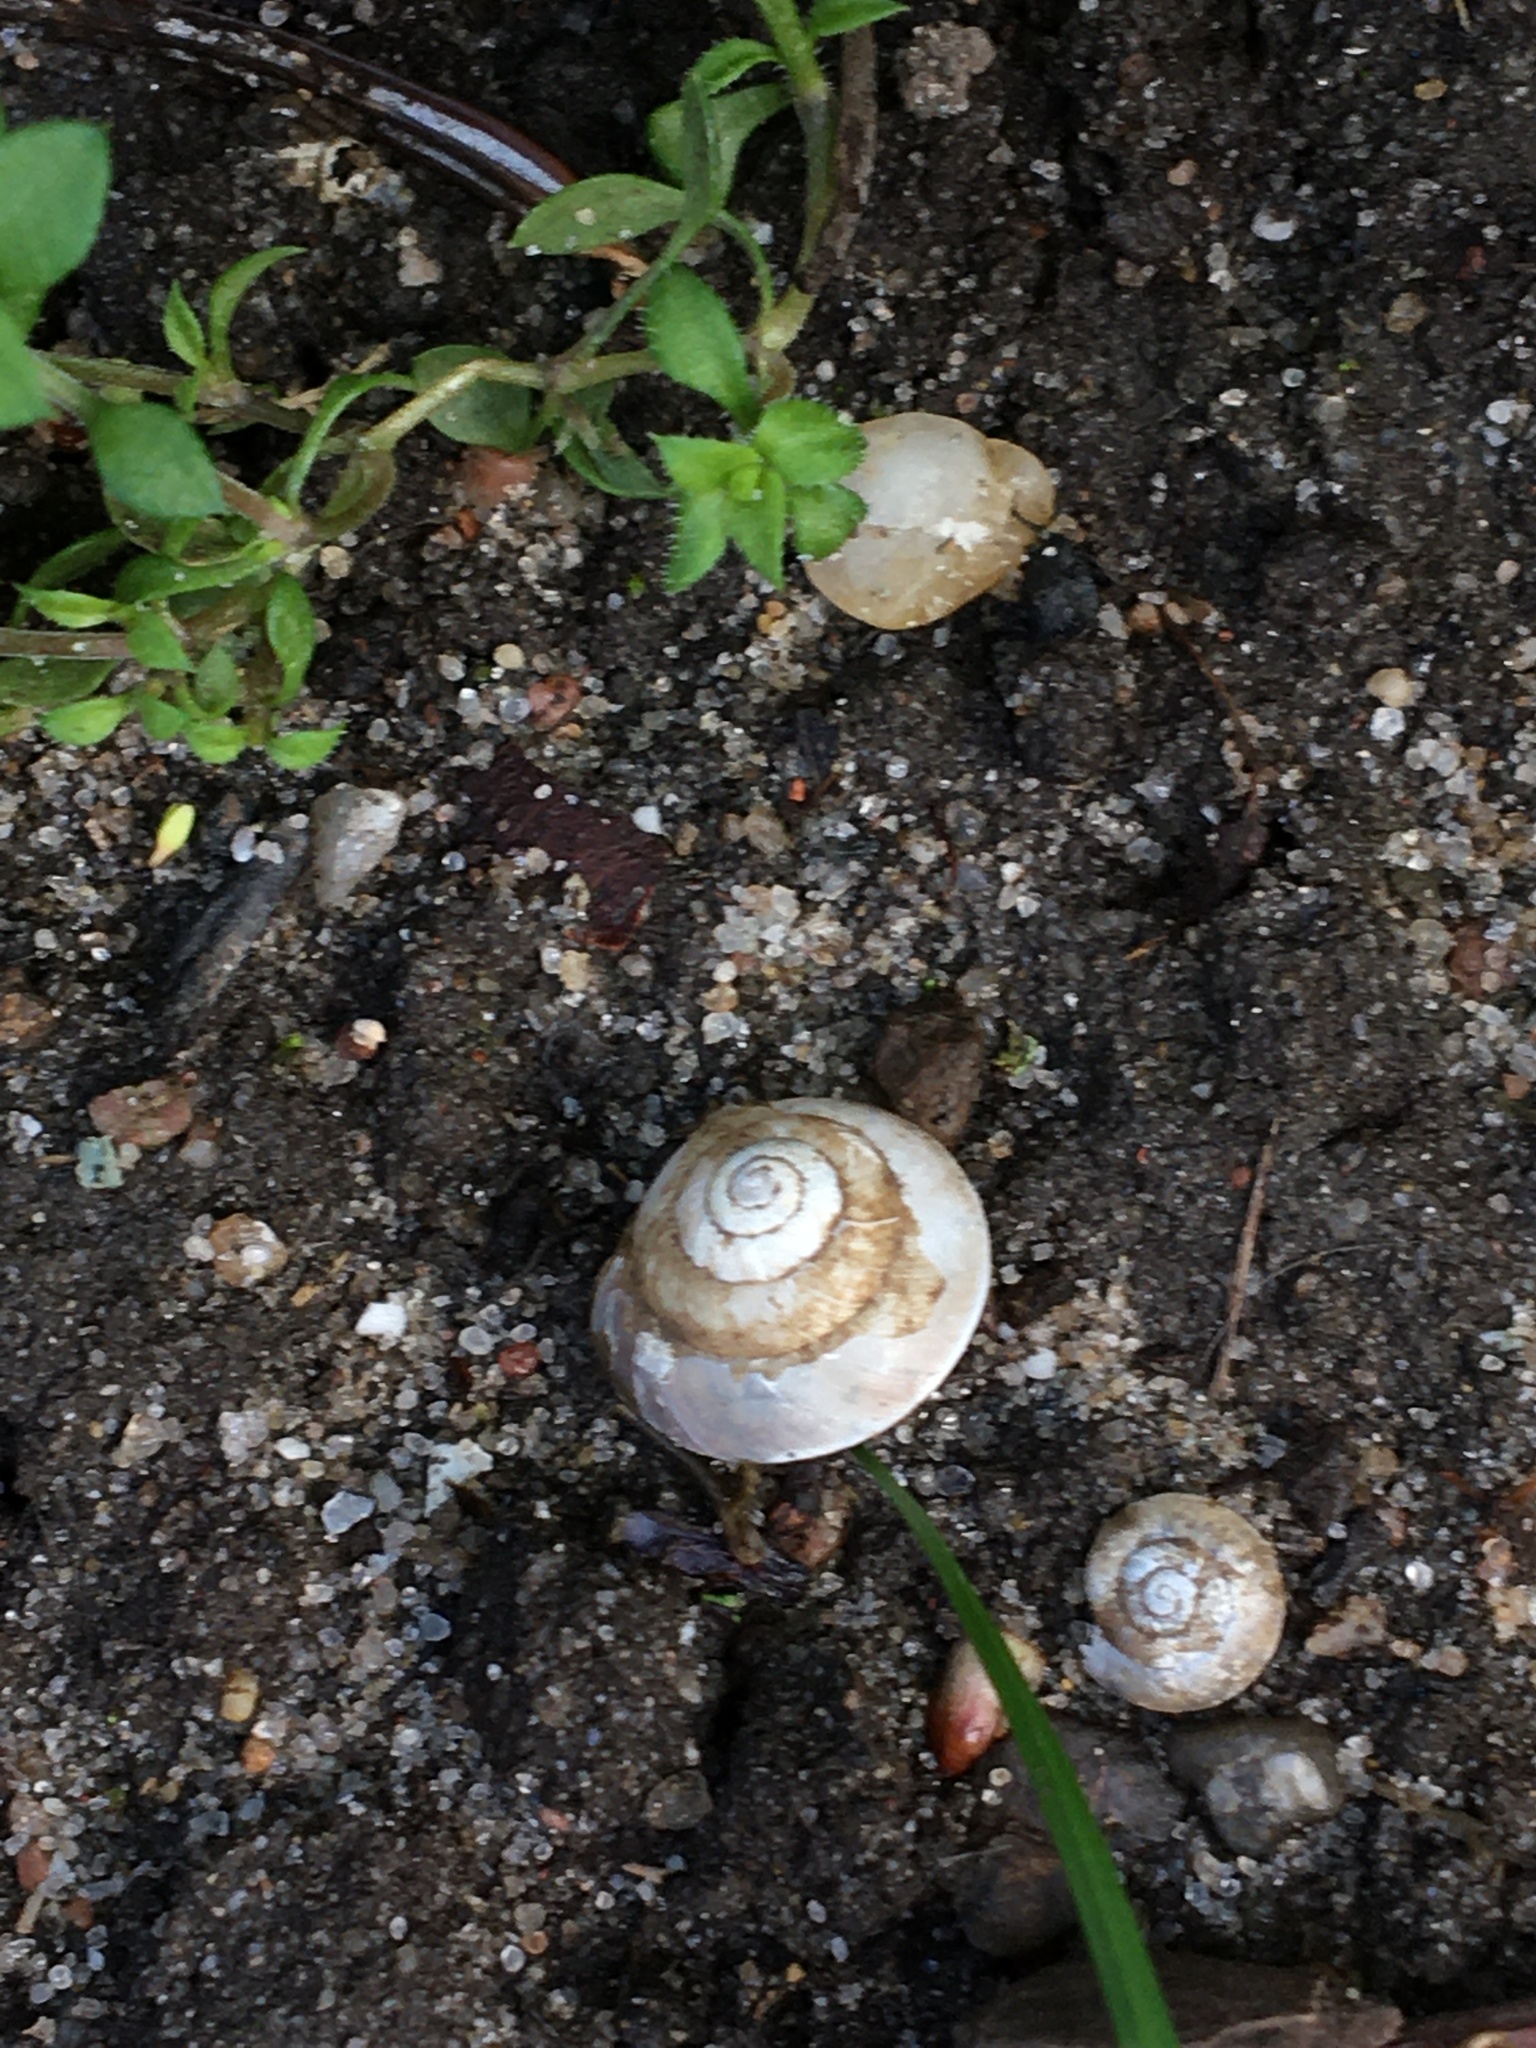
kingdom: Animalia
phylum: Mollusca
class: Gastropoda
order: Stylommatophora
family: Hygromiidae
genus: Hygromia
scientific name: Hygromia cinctella
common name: Girdled snail
